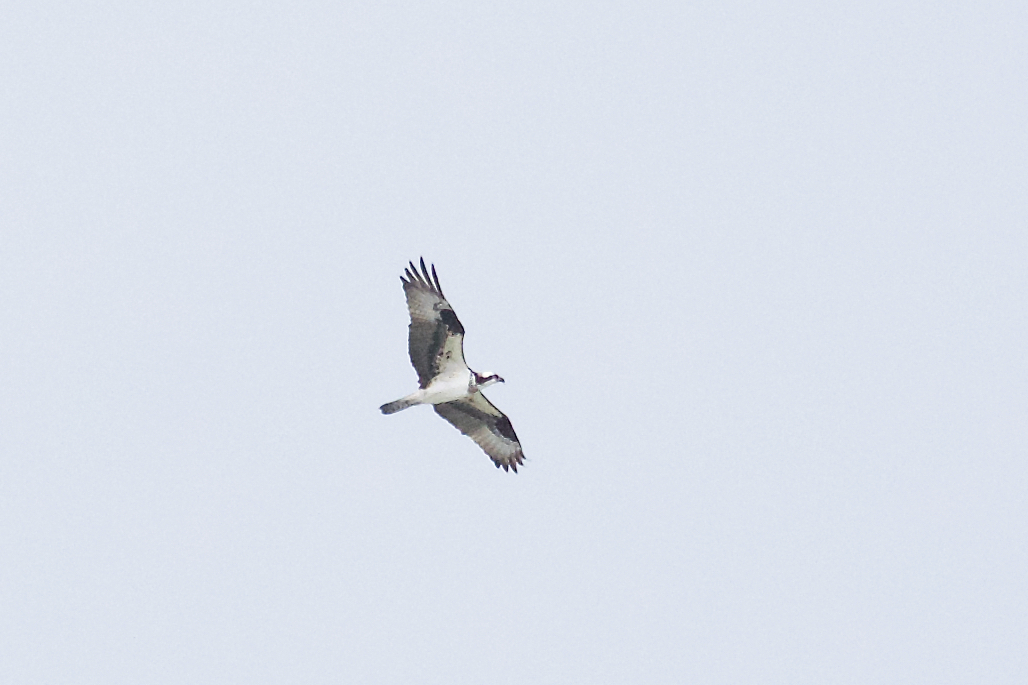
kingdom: Animalia
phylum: Chordata
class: Aves
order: Accipitriformes
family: Pandionidae
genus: Pandion
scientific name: Pandion haliaetus
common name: Osprey
